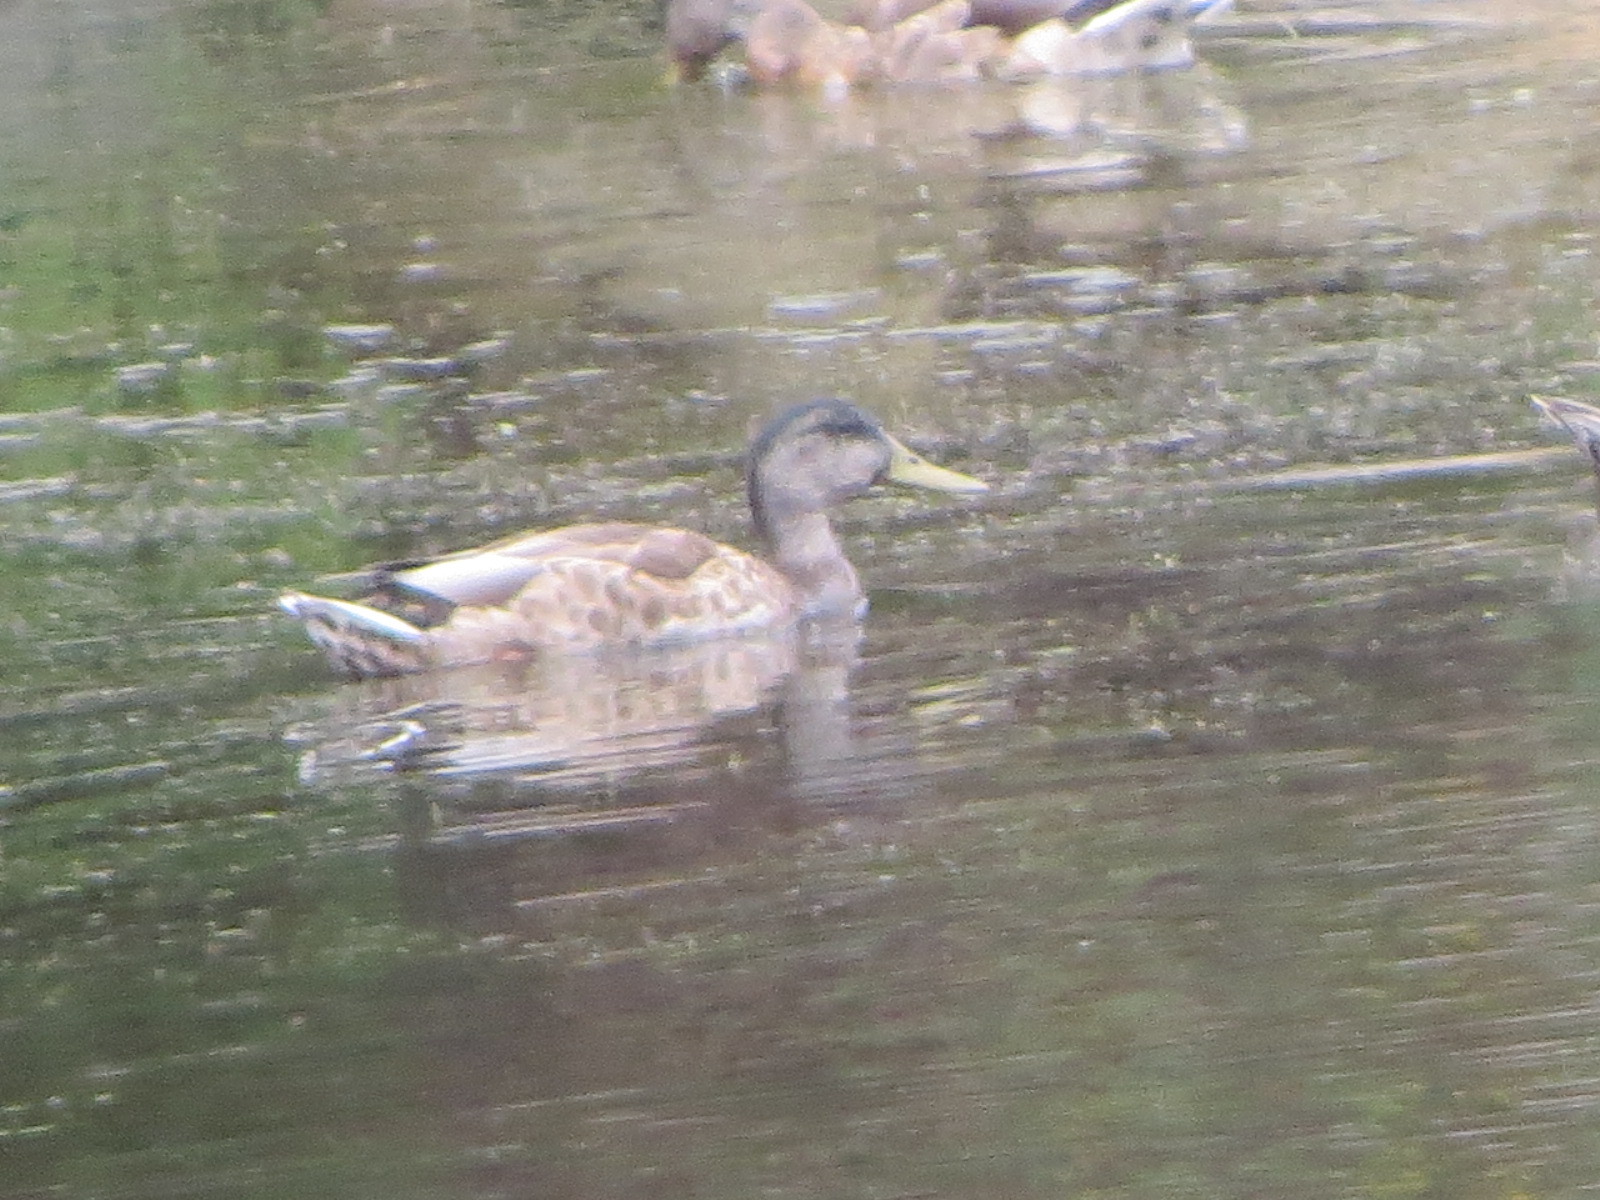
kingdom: Animalia
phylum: Chordata
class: Aves
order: Anseriformes
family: Anatidae
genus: Anas
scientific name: Anas platyrhynchos
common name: Mallard
